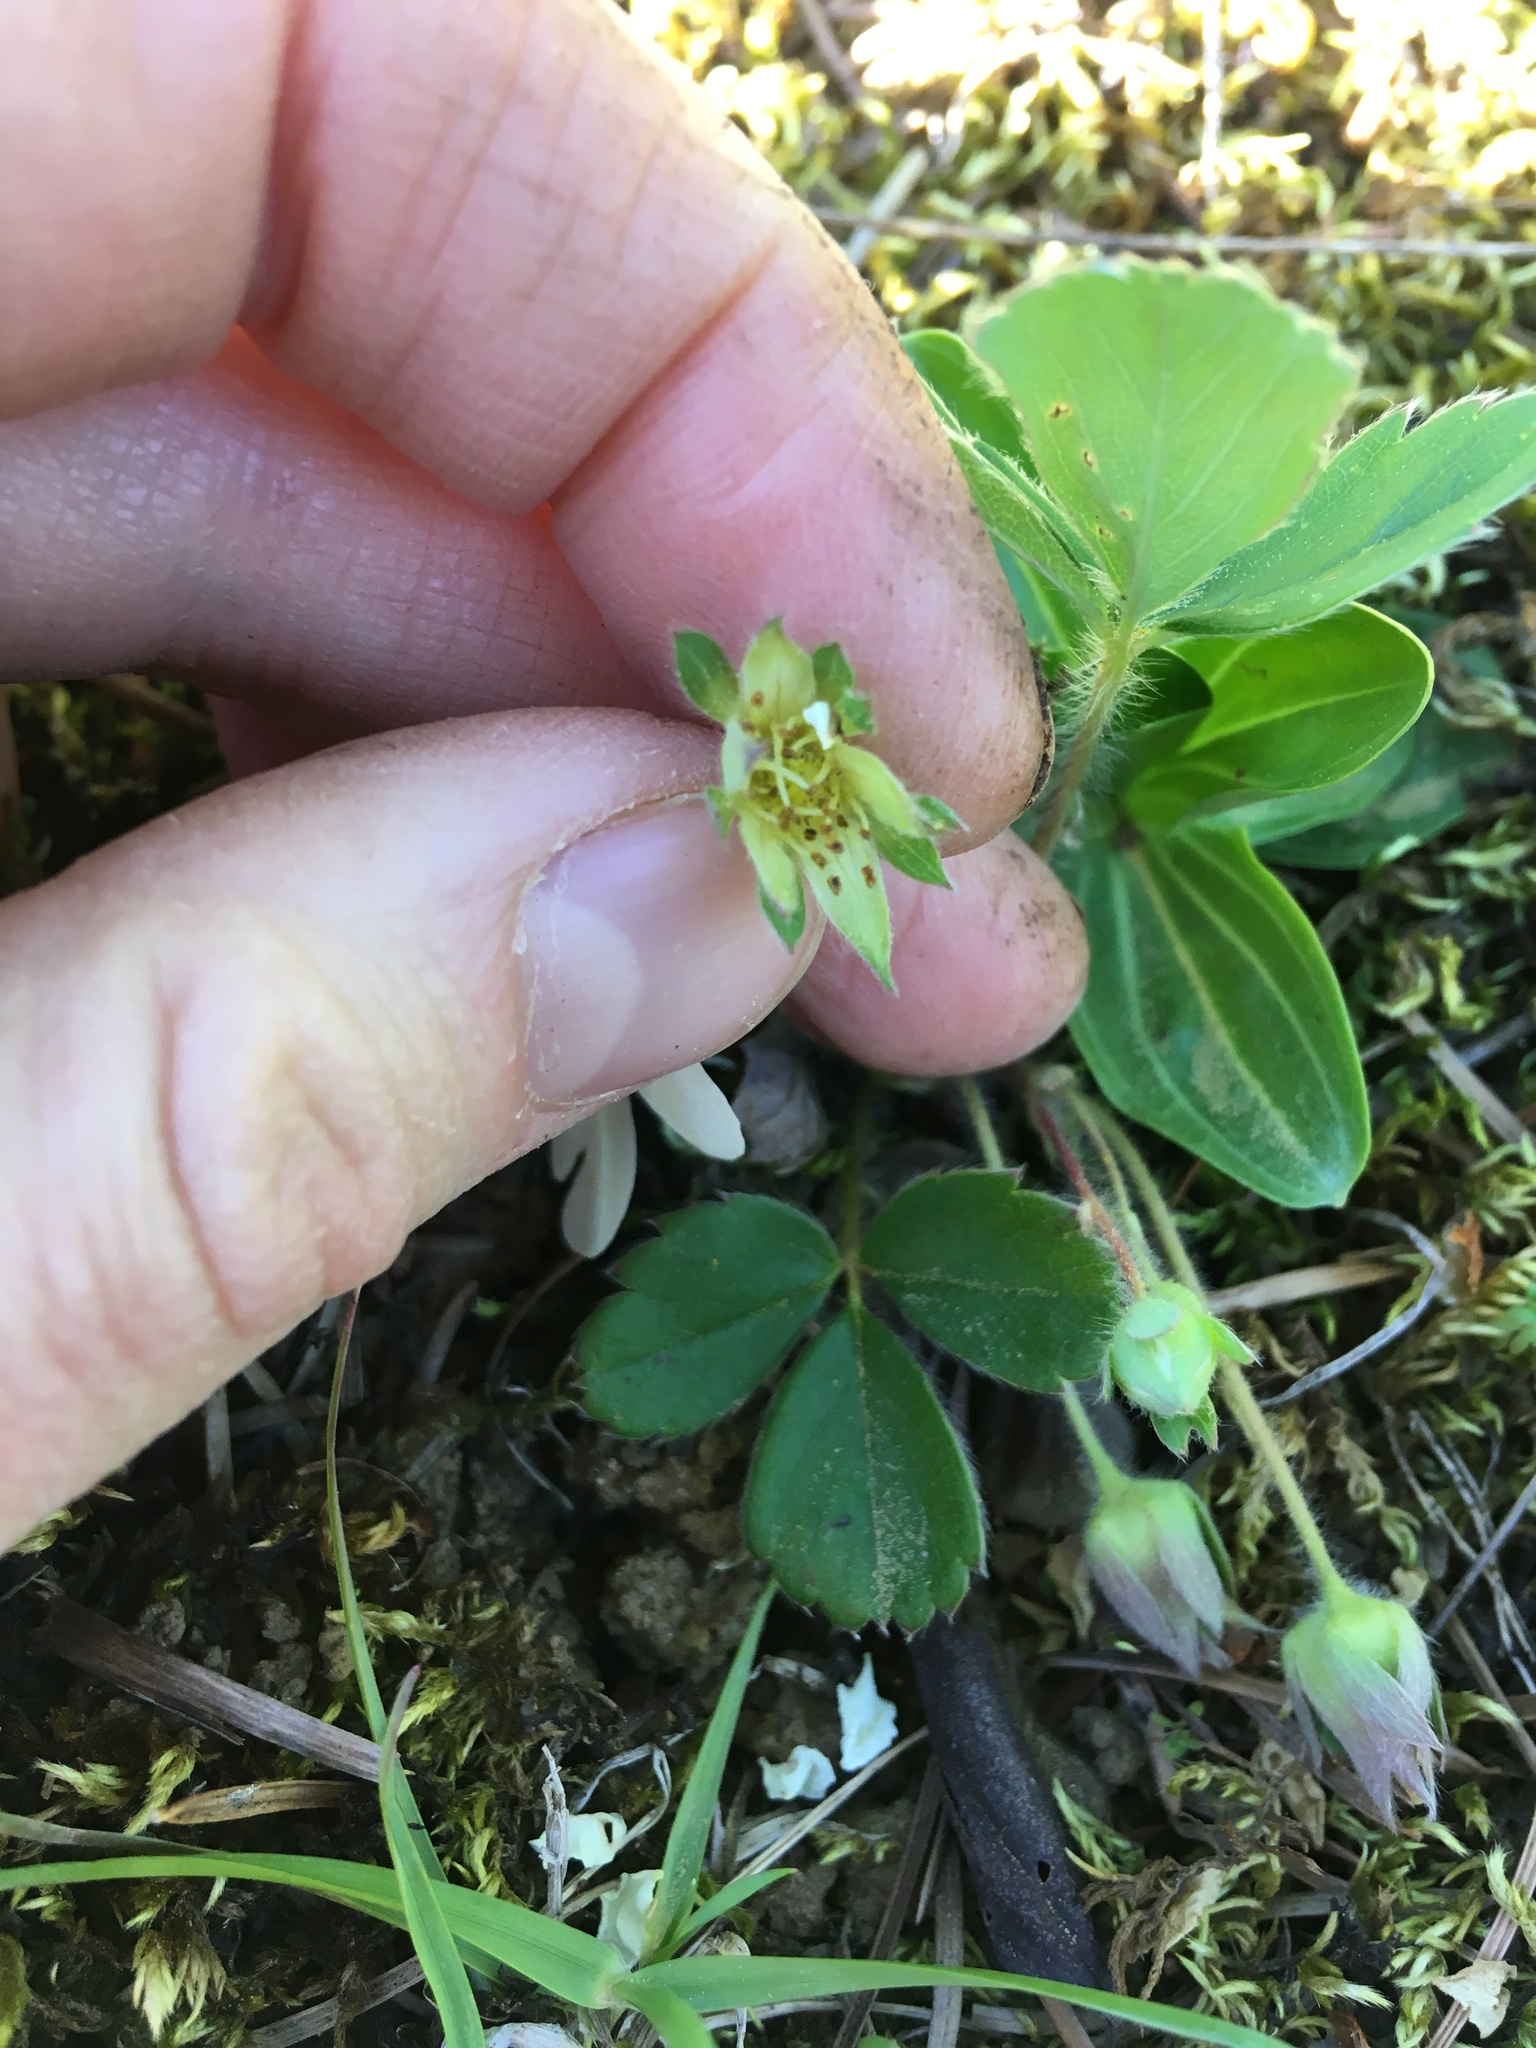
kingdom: Plantae
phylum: Tracheophyta
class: Magnoliopsida
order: Rosales
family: Rosaceae
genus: Fragaria
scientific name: Fragaria virginiana
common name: Thickleaved wild strawberry
